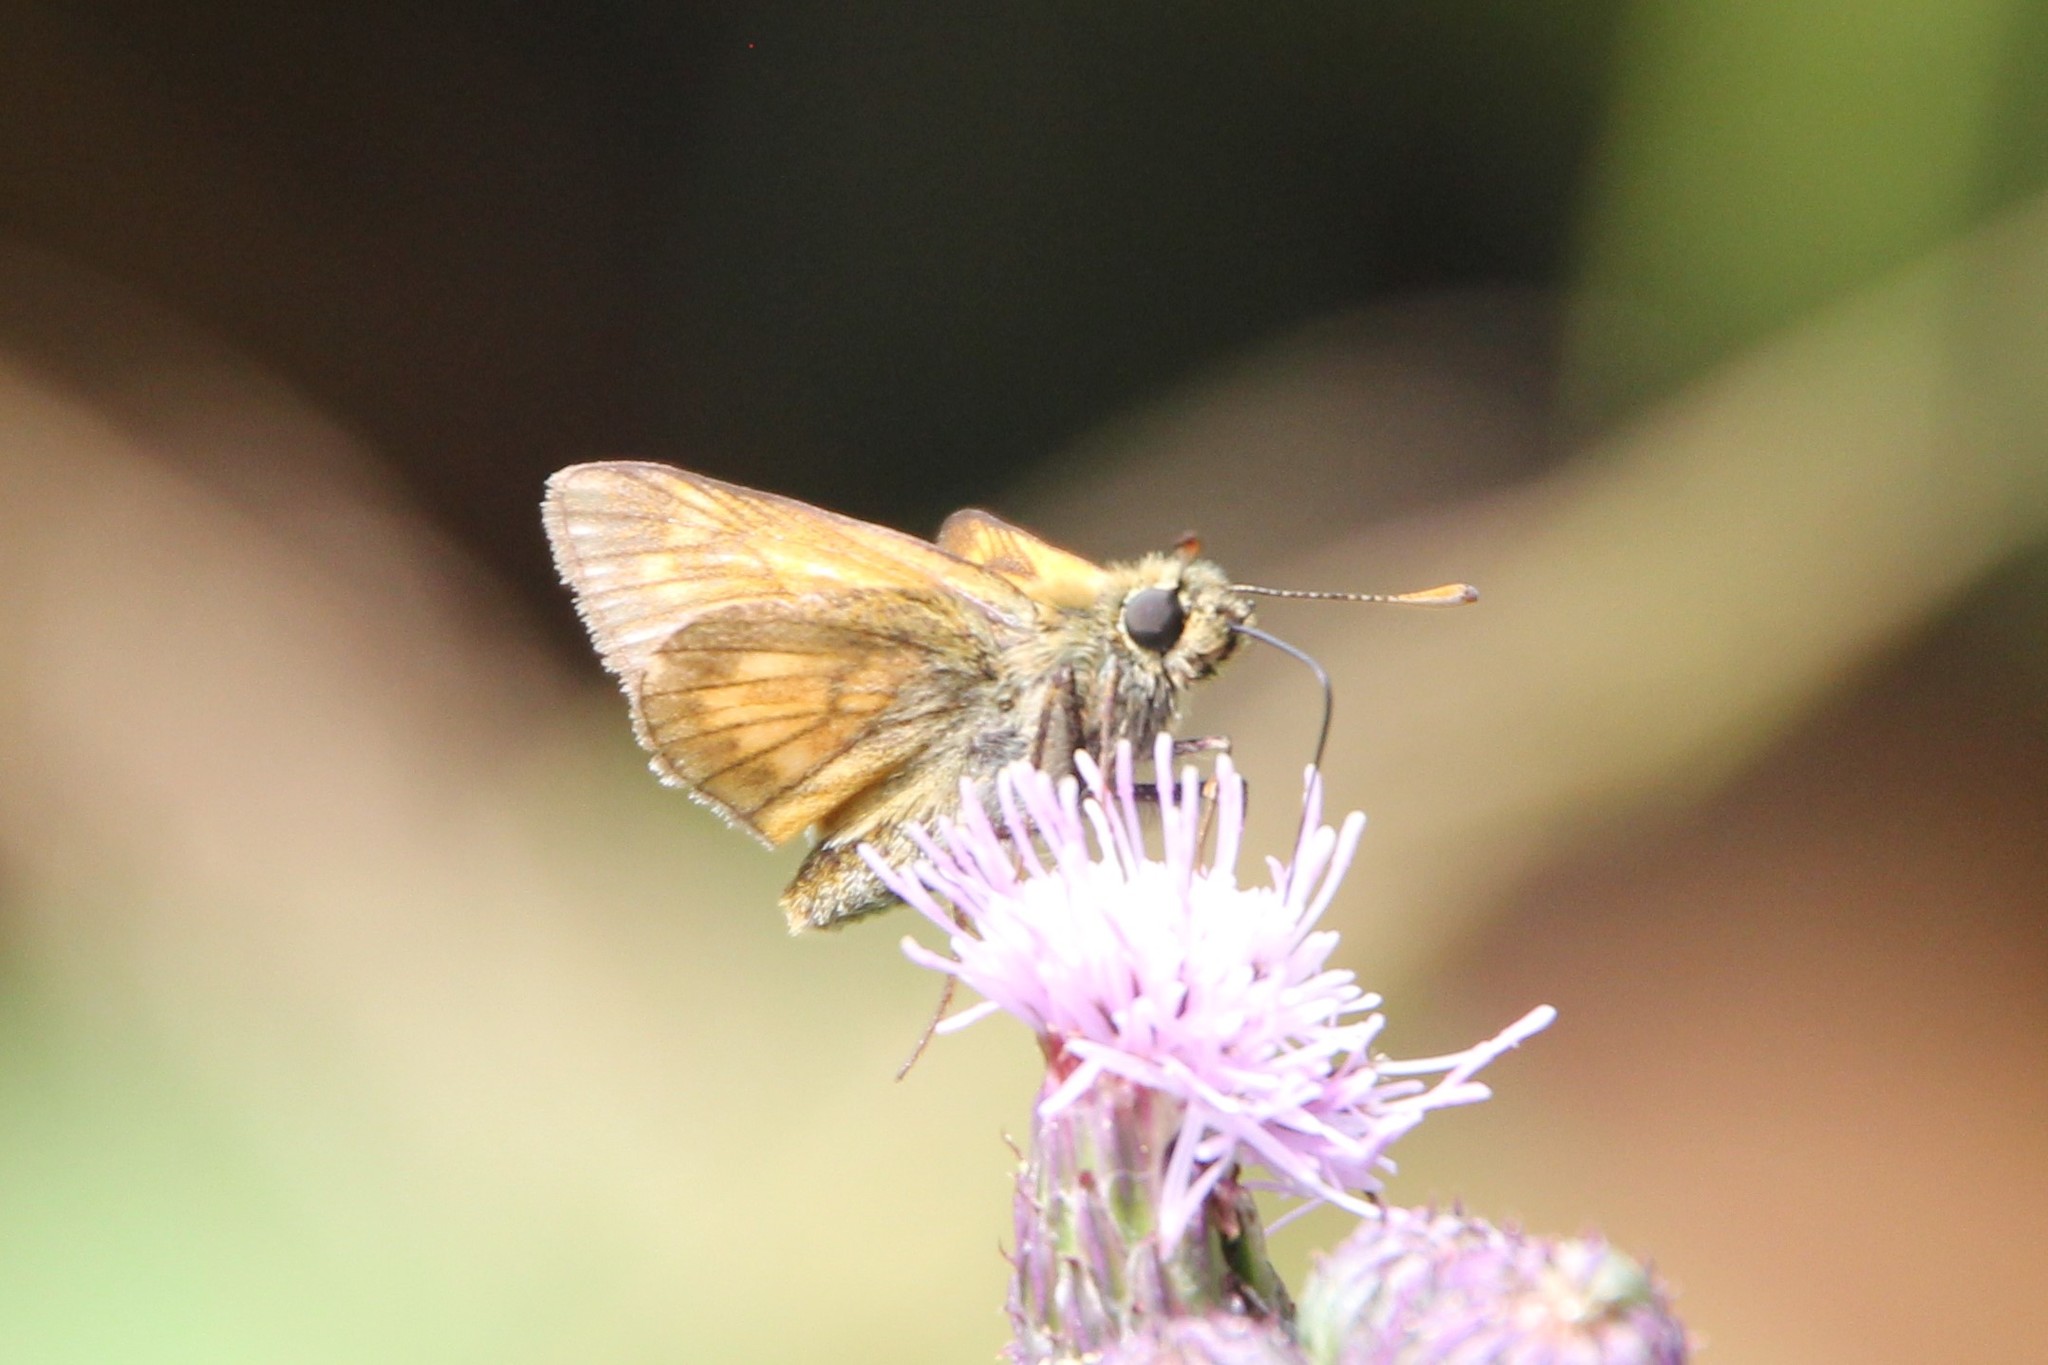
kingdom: Animalia
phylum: Arthropoda
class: Insecta
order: Lepidoptera
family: Hesperiidae
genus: Ochlodes
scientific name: Ochlodes venata
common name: Large skipper
